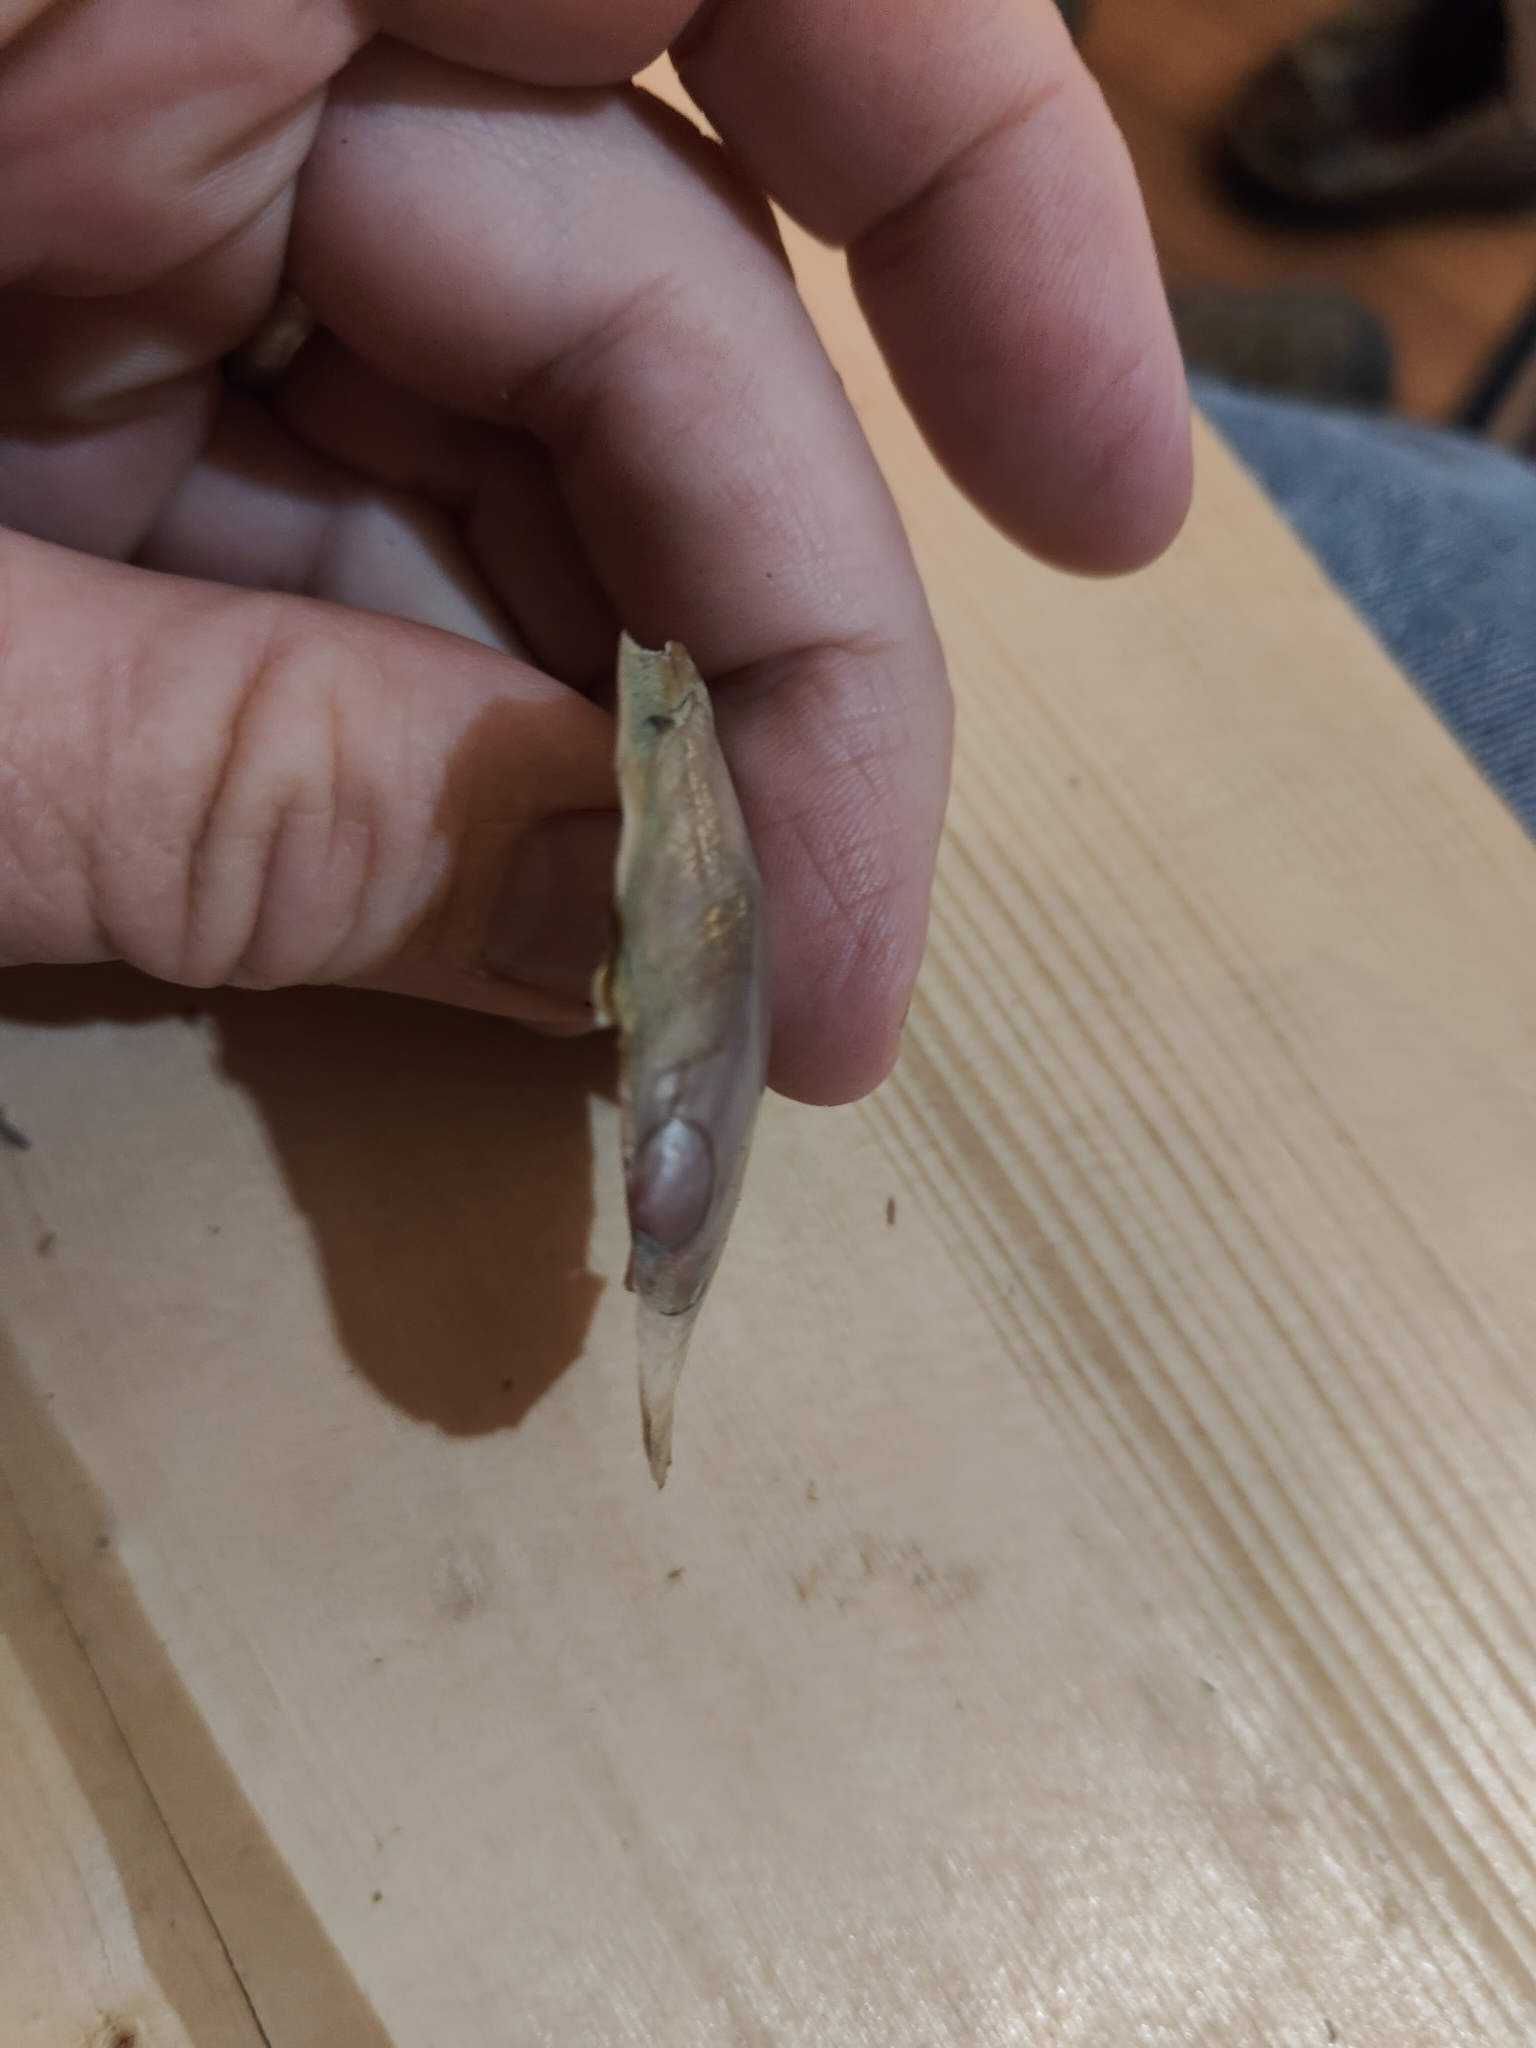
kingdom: Animalia
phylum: Mollusca
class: Bivalvia
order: Unionida
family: Unionidae
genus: Potamilus
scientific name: Potamilus ohiensis
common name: Pink papershell
